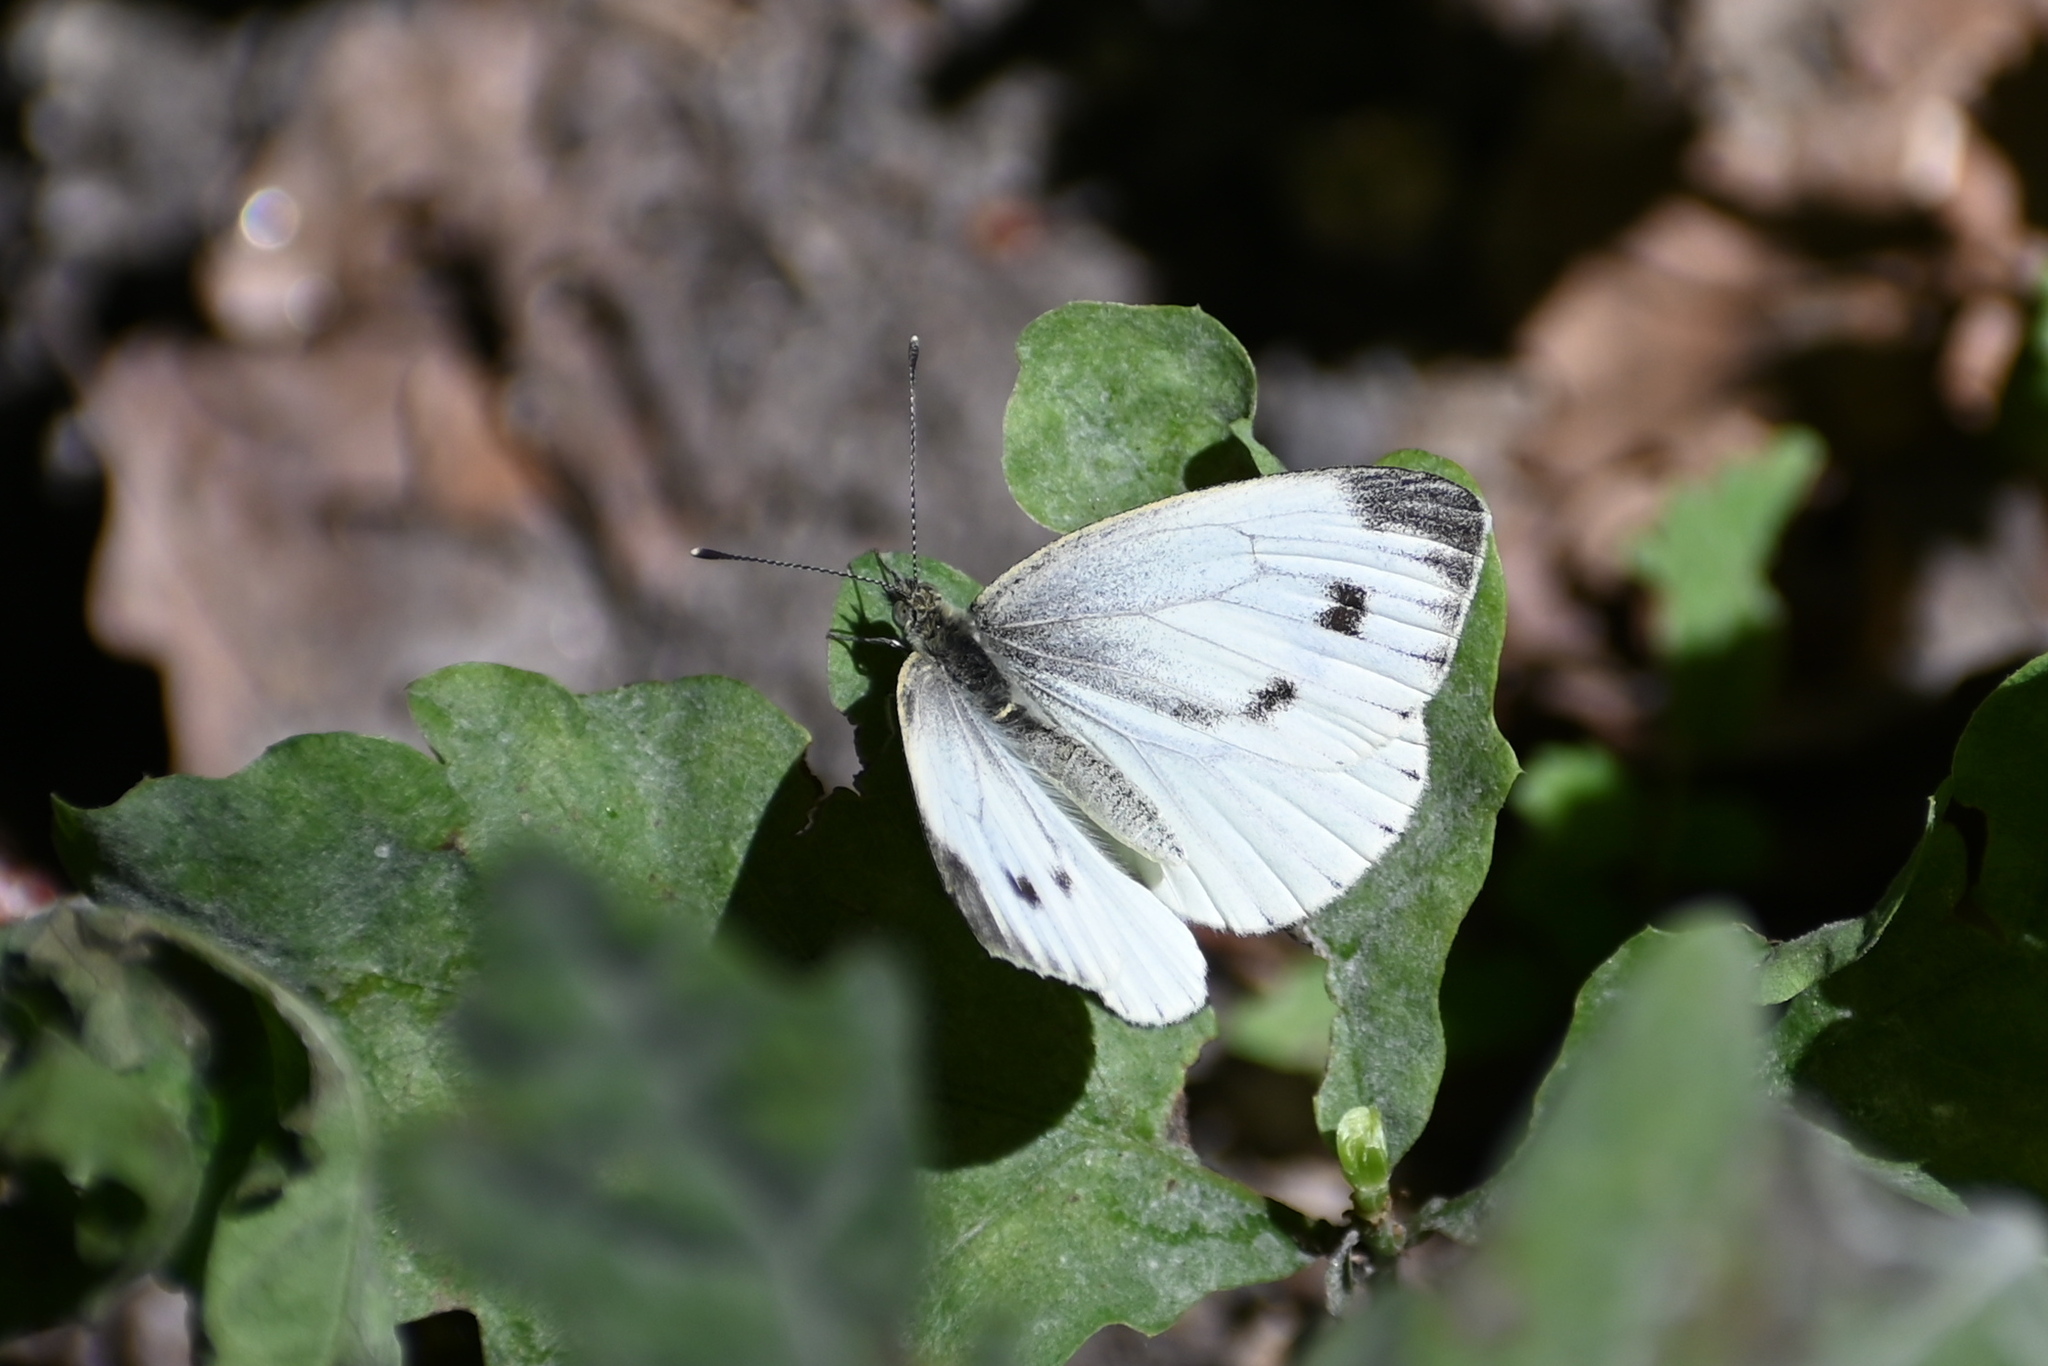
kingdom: Animalia
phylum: Arthropoda
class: Insecta
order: Lepidoptera
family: Pieridae
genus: Pieris
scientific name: Pieris napi
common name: Green-veined white
